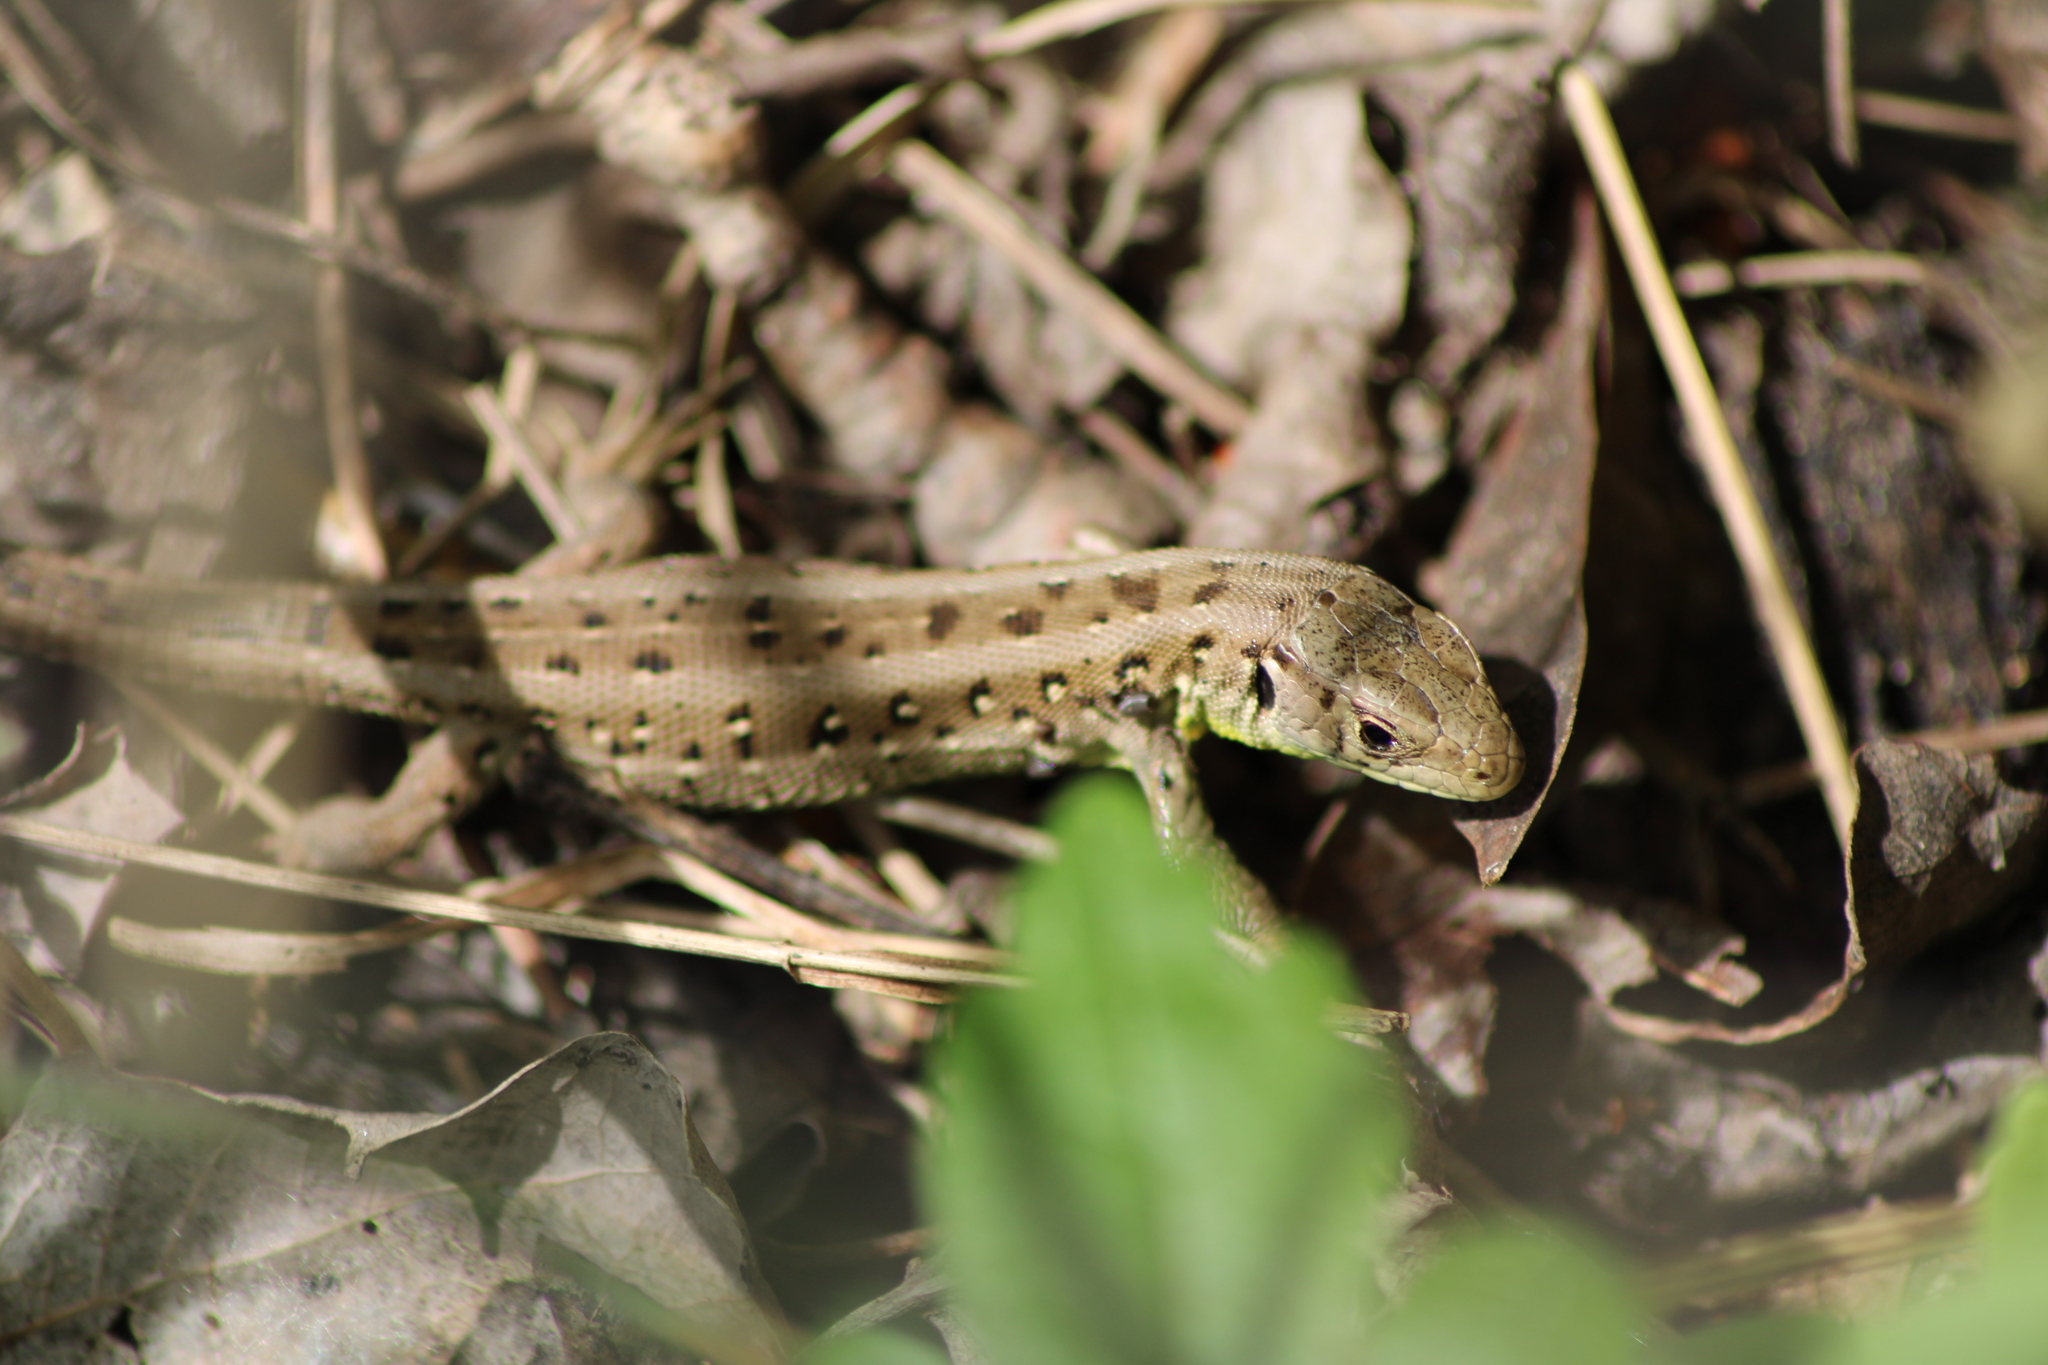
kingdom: Animalia
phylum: Chordata
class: Squamata
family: Lacertidae
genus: Lacerta
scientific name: Lacerta agilis
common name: Sand lizard
